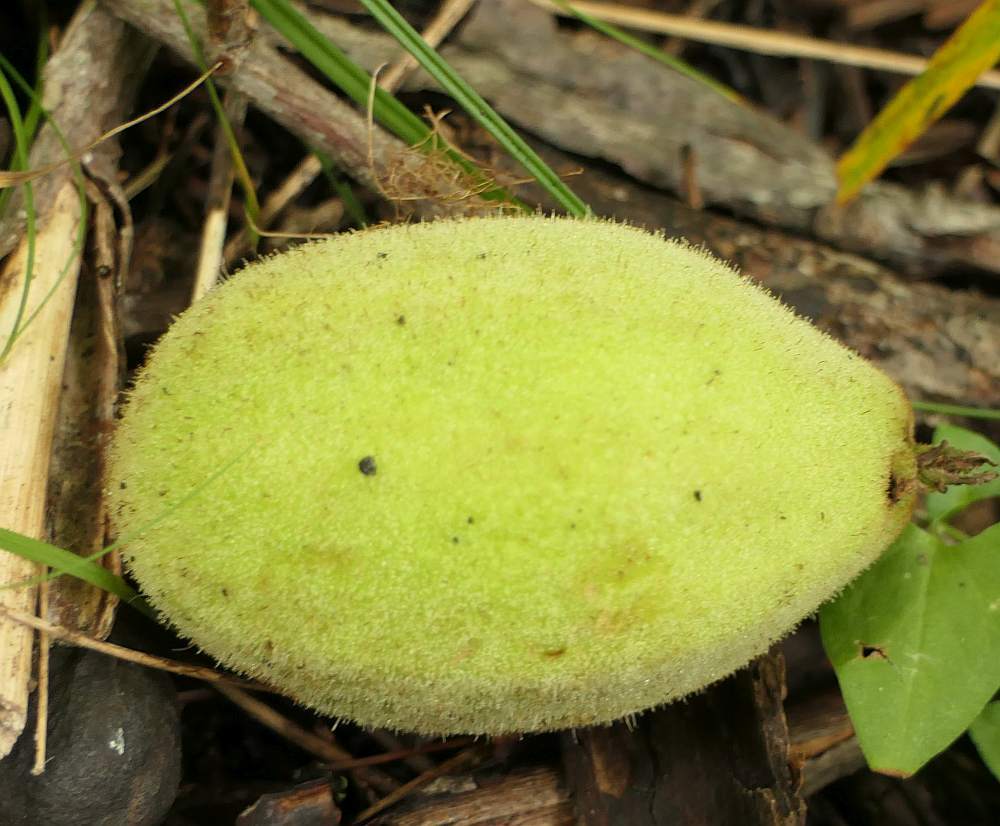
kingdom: Plantae
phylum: Tracheophyta
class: Magnoliopsida
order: Fagales
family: Juglandaceae
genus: Juglans
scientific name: Juglans cinerea
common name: Butternut
